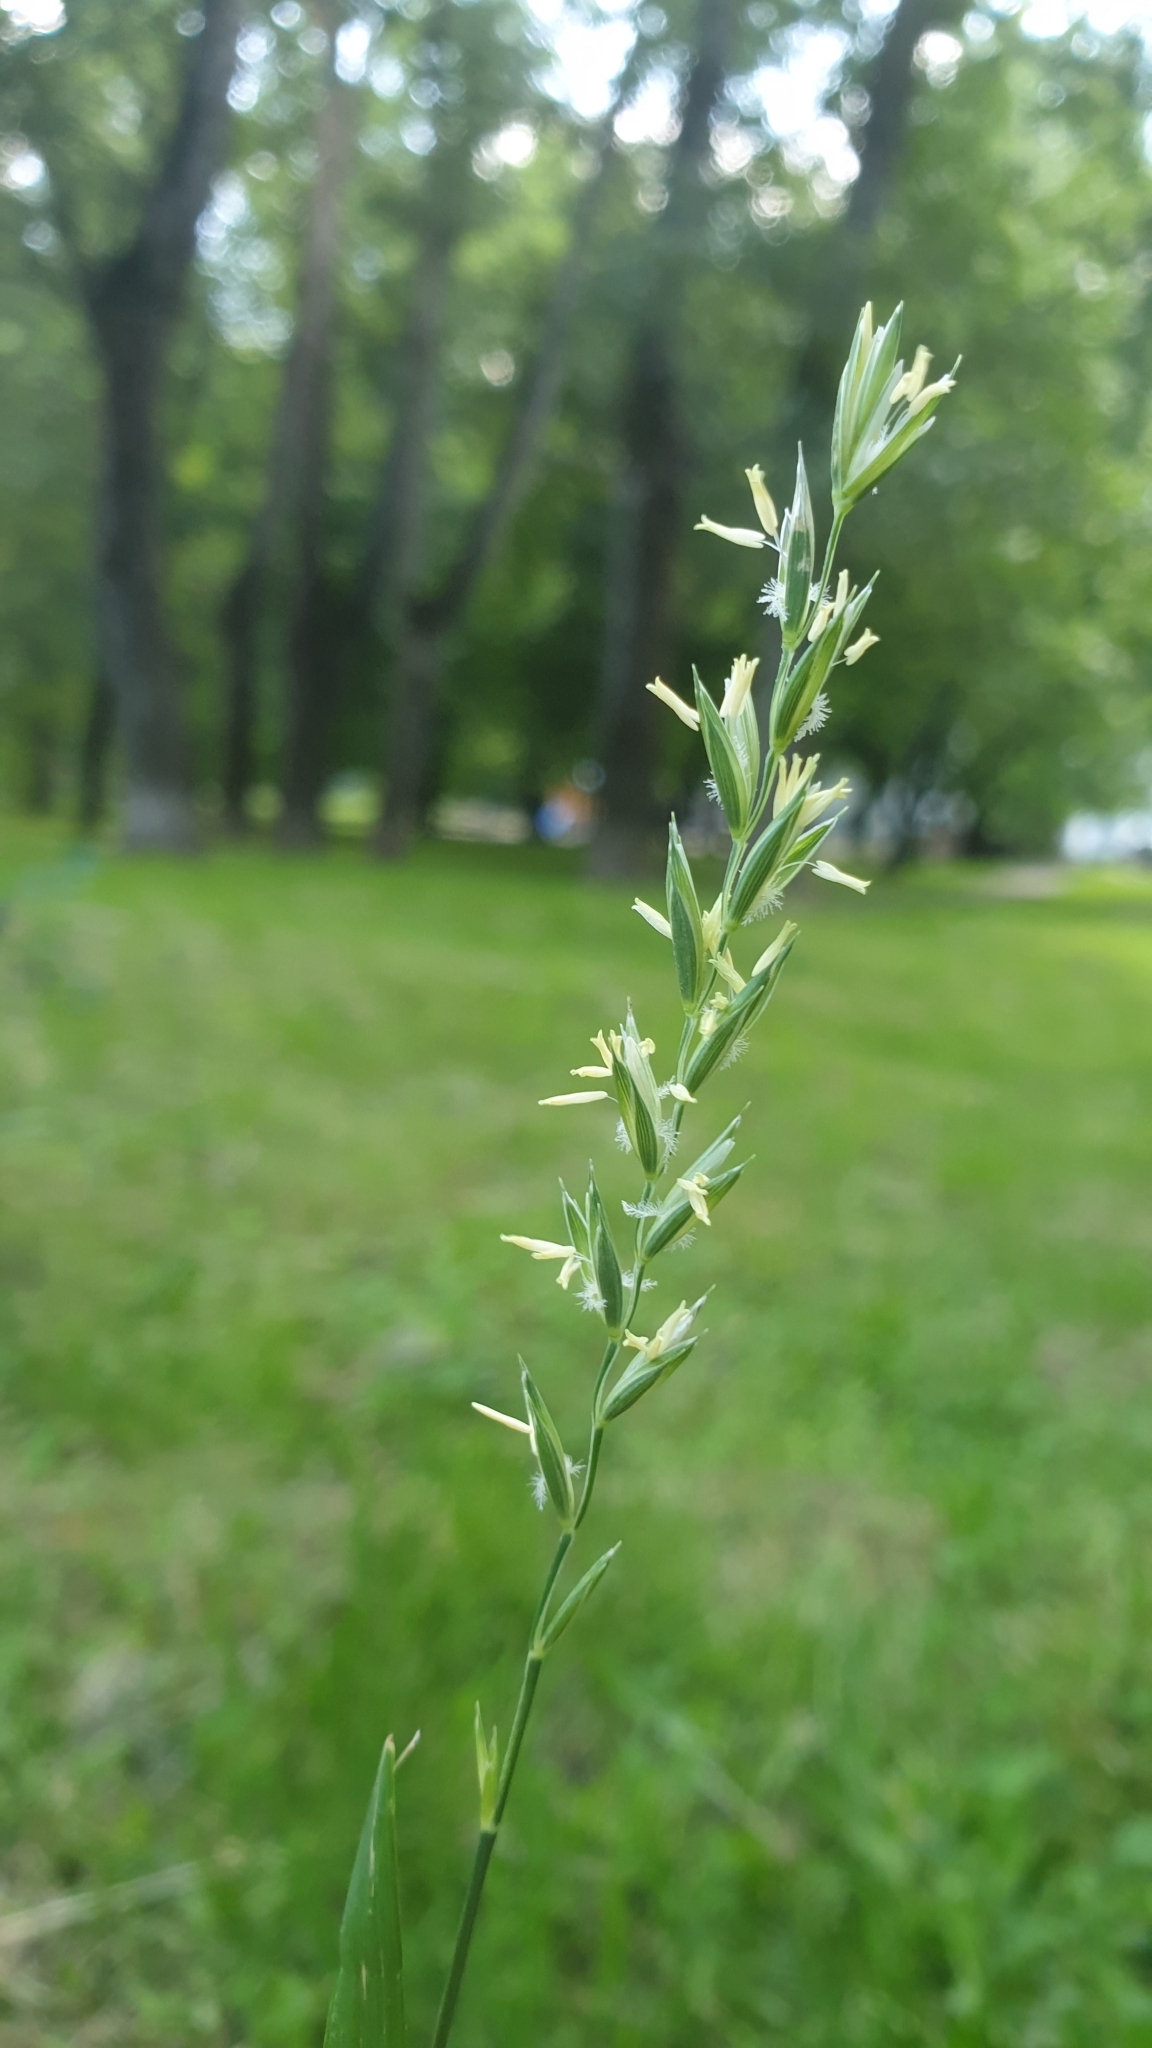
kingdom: Plantae
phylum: Tracheophyta
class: Liliopsida
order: Poales
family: Poaceae
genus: Elymus
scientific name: Elymus repens
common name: Quackgrass
